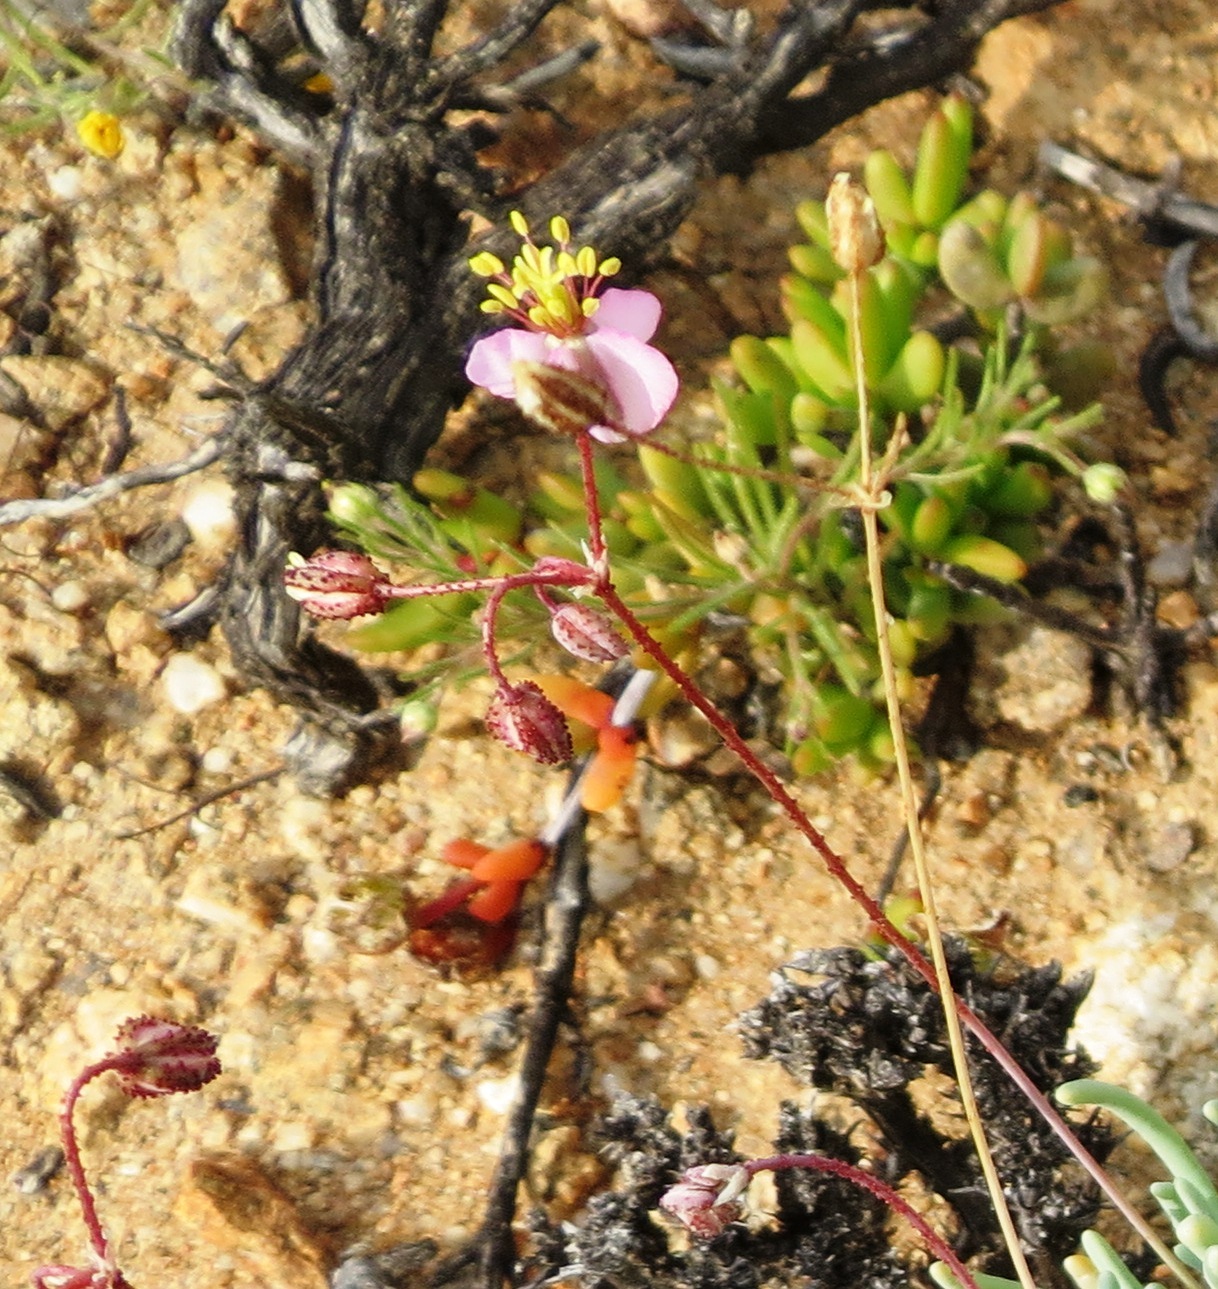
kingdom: Plantae
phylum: Tracheophyta
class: Magnoliopsida
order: Caryophyllales
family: Kewaceae
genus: Kewa
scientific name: Kewa salsoloides
